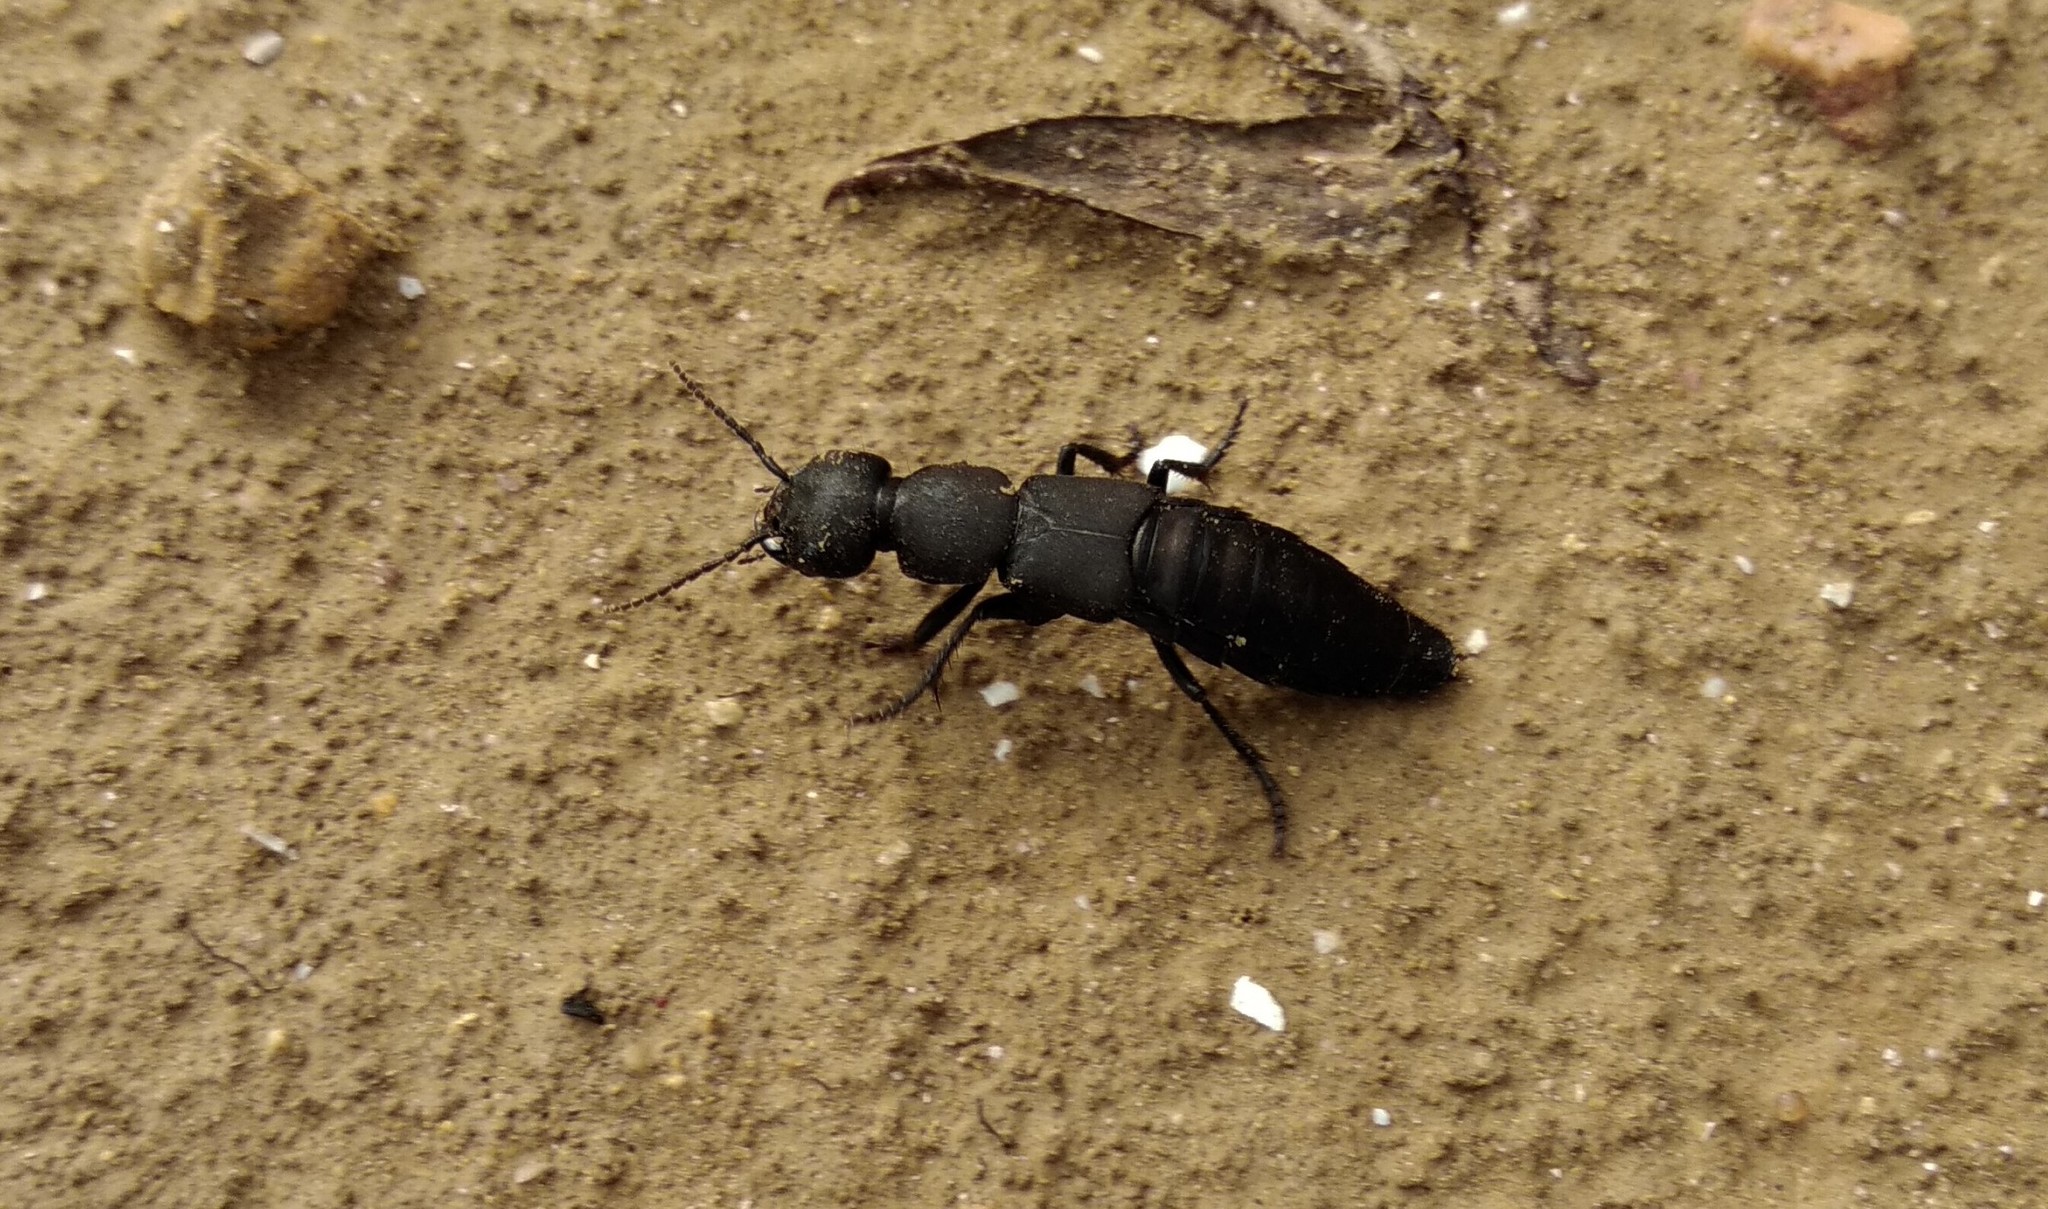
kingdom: Animalia
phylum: Arthropoda
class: Insecta
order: Coleoptera
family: Staphylinidae
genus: Ocypus
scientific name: Ocypus olens
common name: Devil's coach-horse
